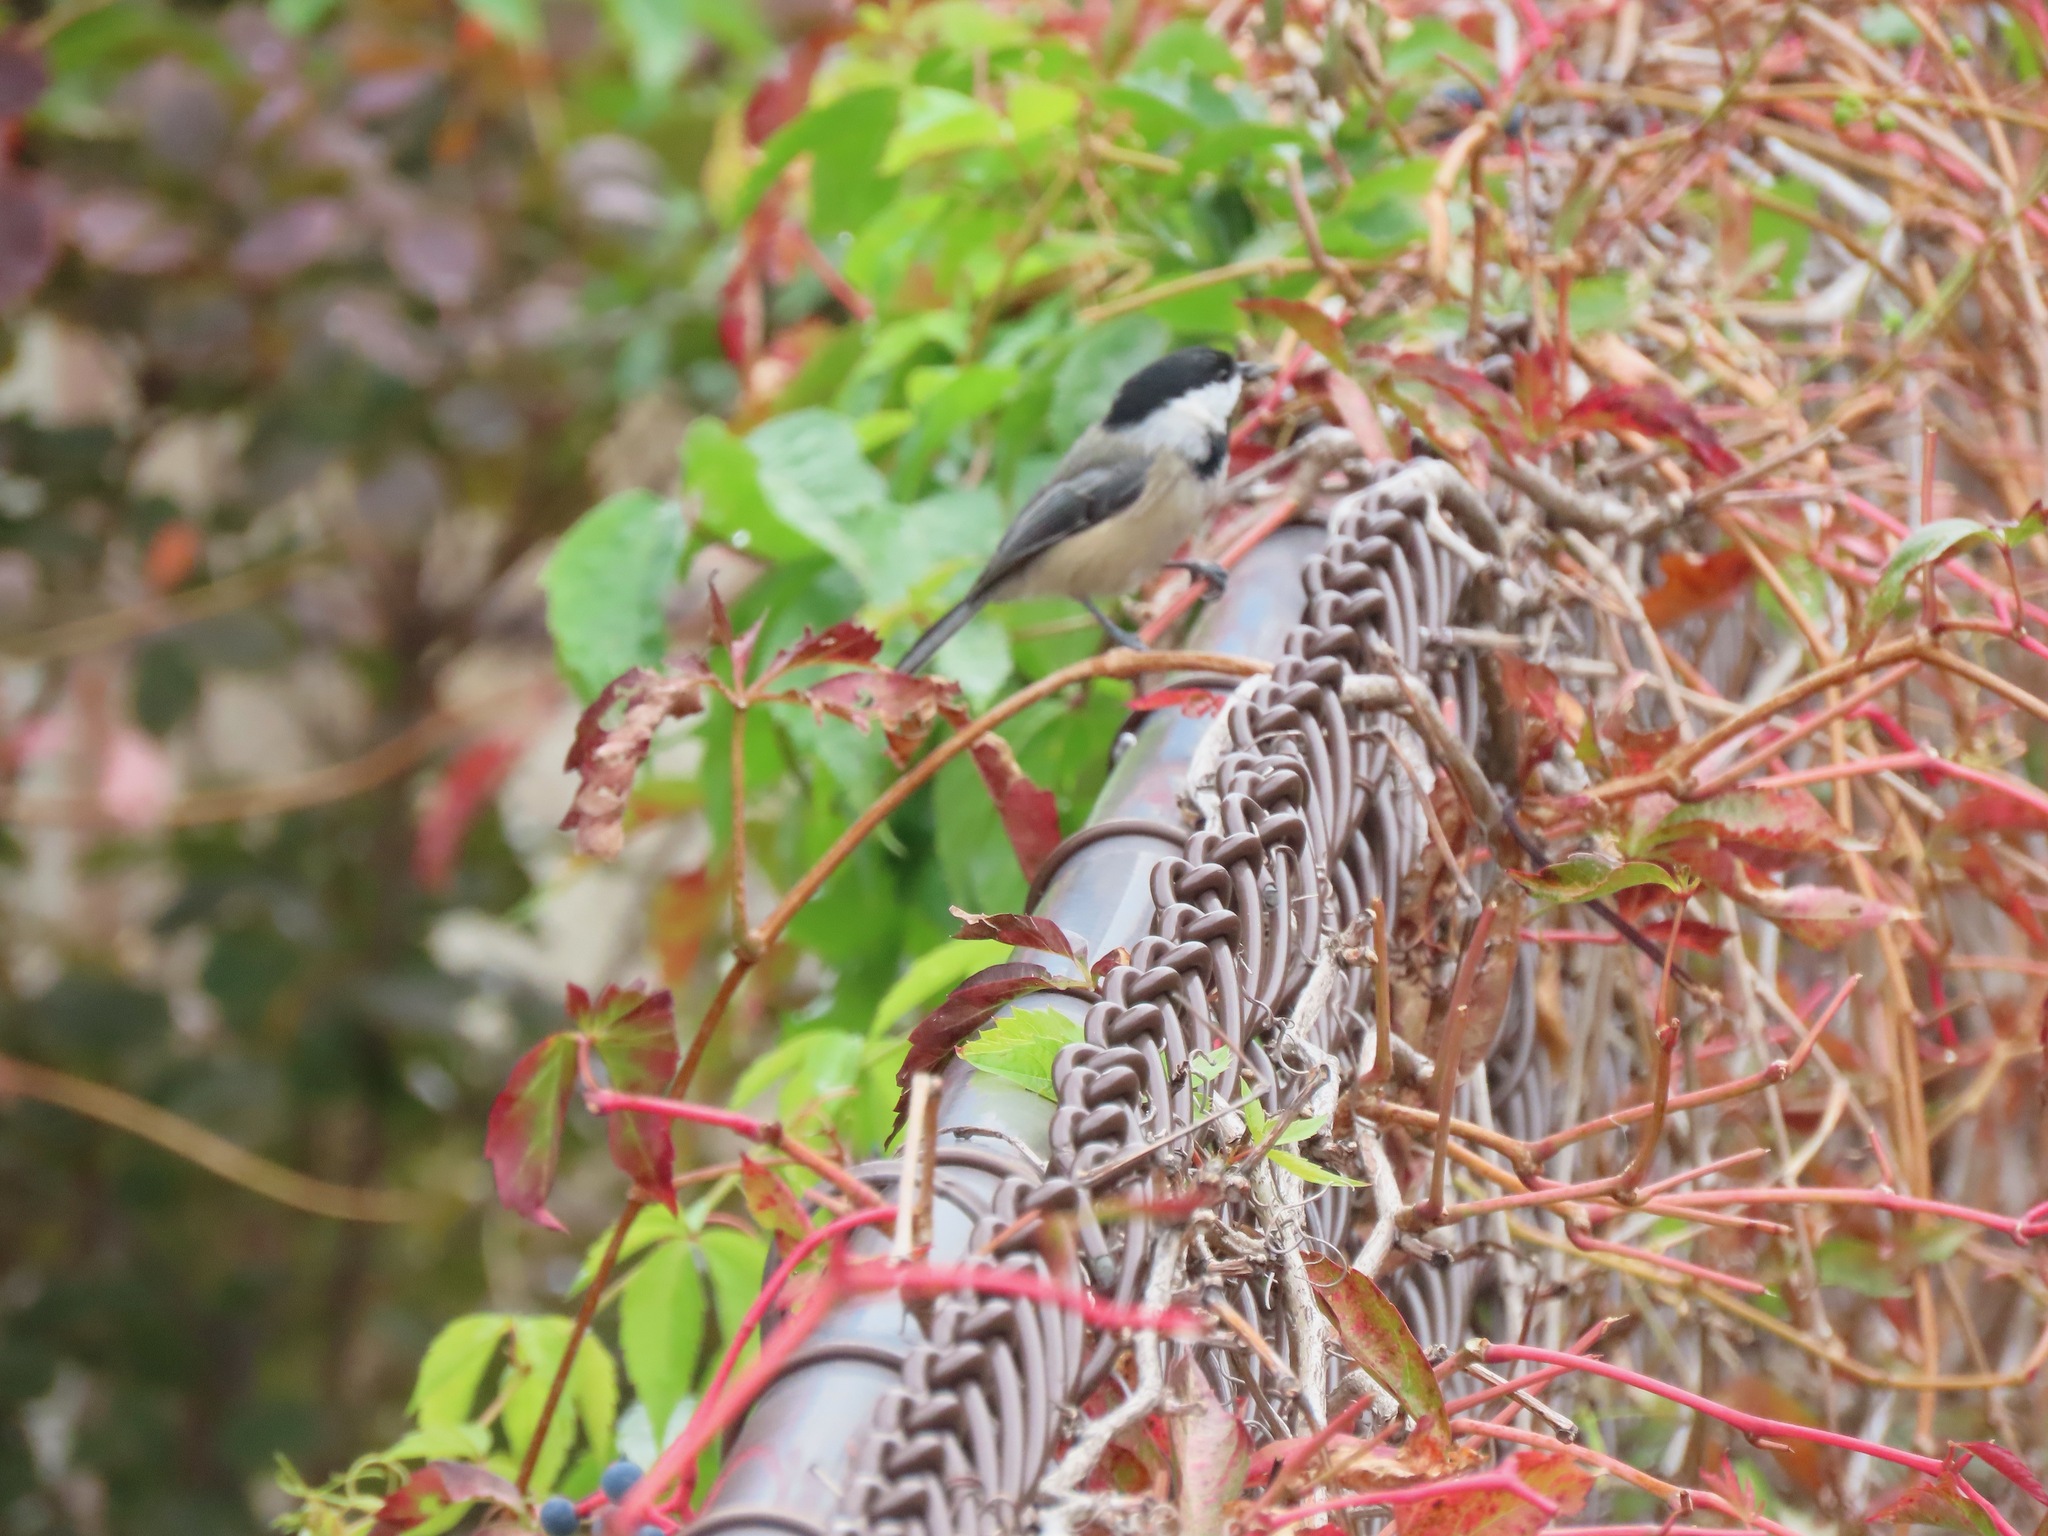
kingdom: Animalia
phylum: Chordata
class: Aves
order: Passeriformes
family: Paridae
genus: Poecile
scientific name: Poecile atricapillus
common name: Black-capped chickadee
